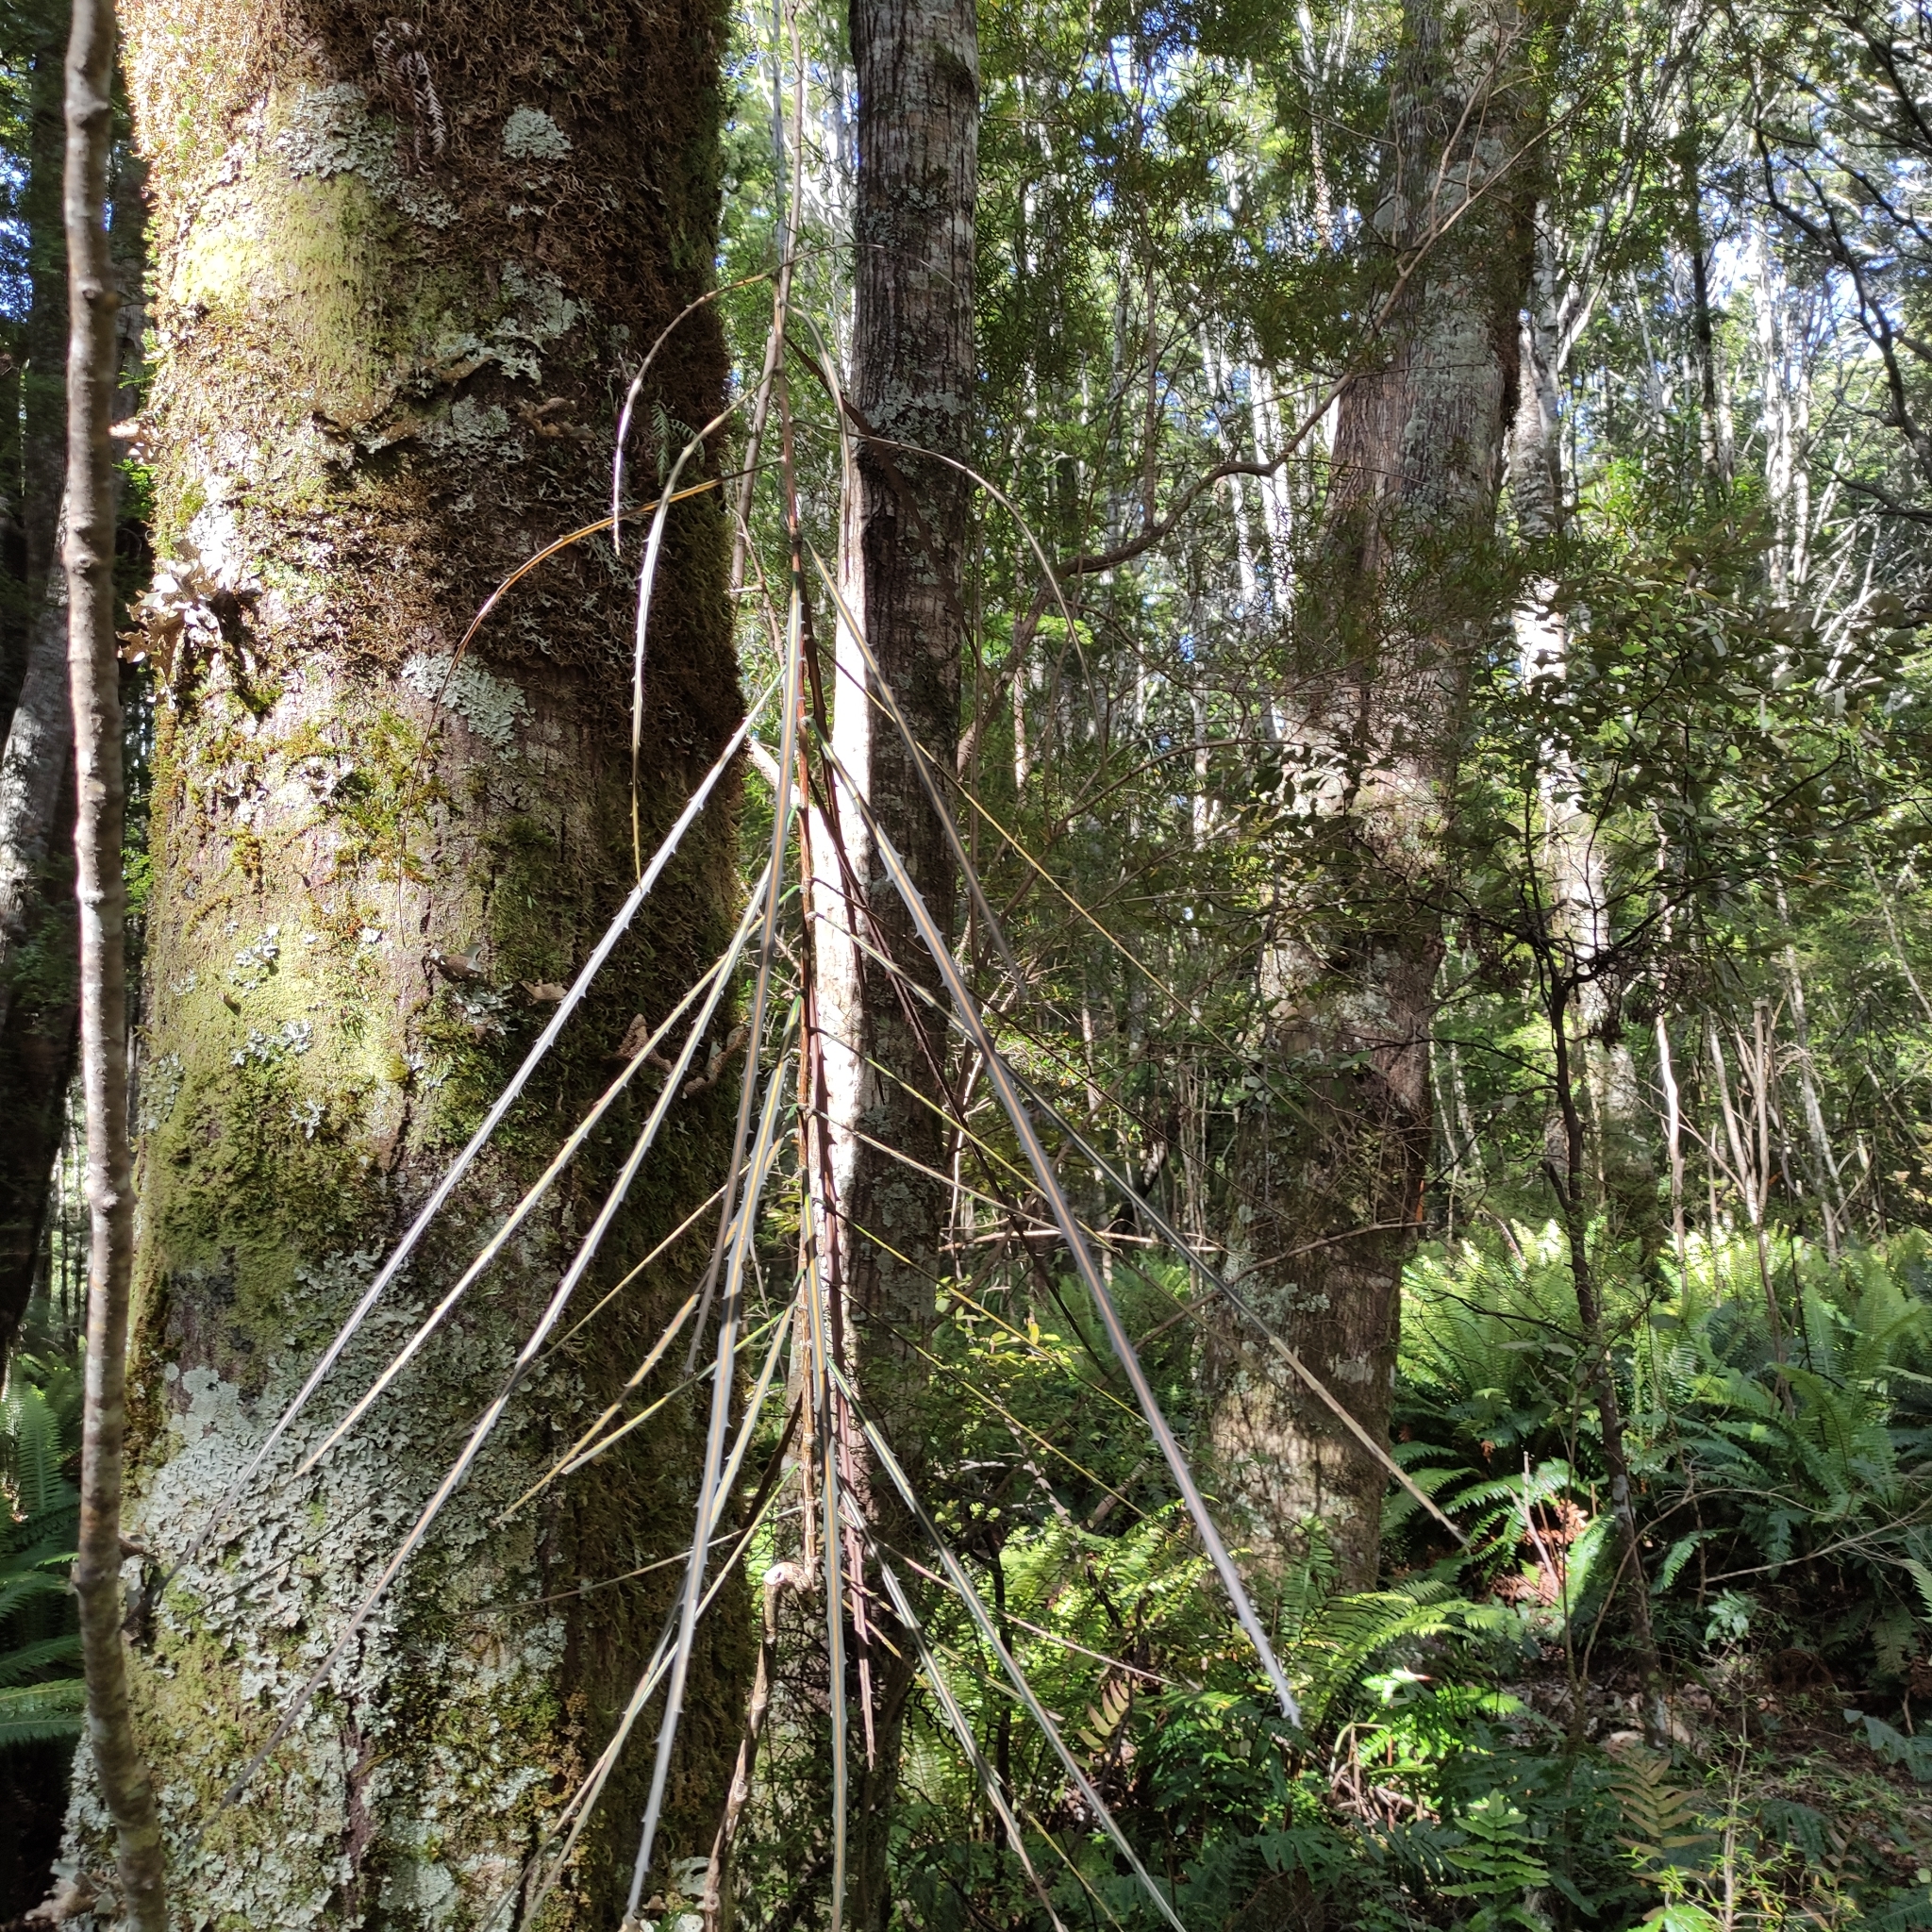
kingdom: Plantae
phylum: Tracheophyta
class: Magnoliopsida
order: Apiales
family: Araliaceae
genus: Pseudopanax
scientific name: Pseudopanax crassifolius
